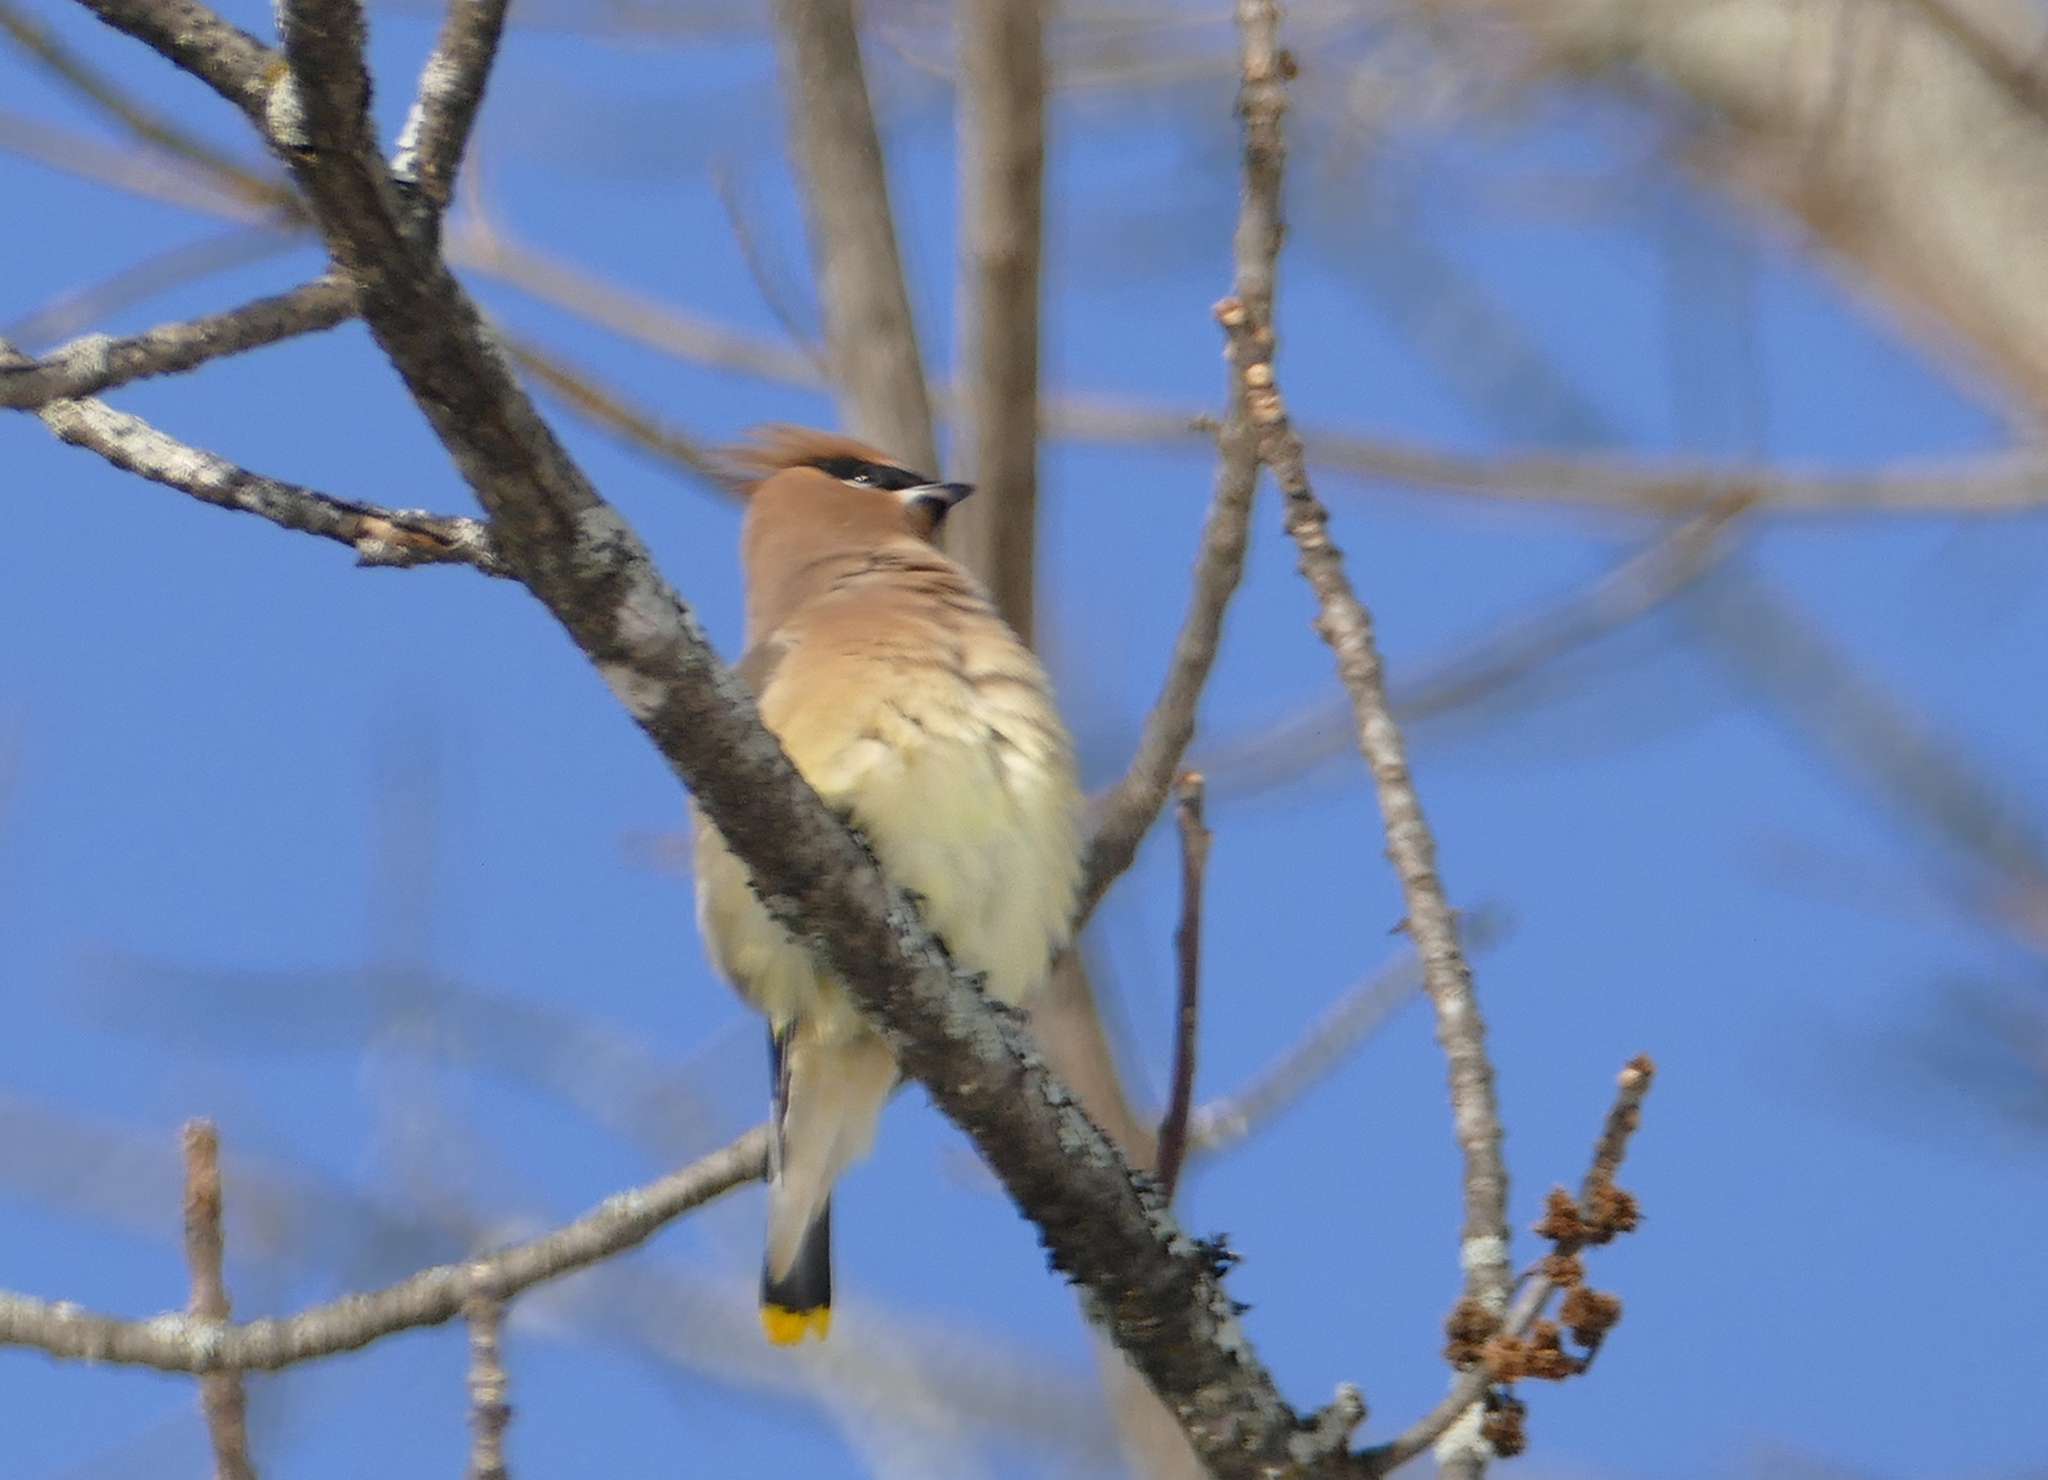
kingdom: Animalia
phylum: Chordata
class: Aves
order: Passeriformes
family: Bombycillidae
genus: Bombycilla
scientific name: Bombycilla cedrorum
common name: Cedar waxwing
